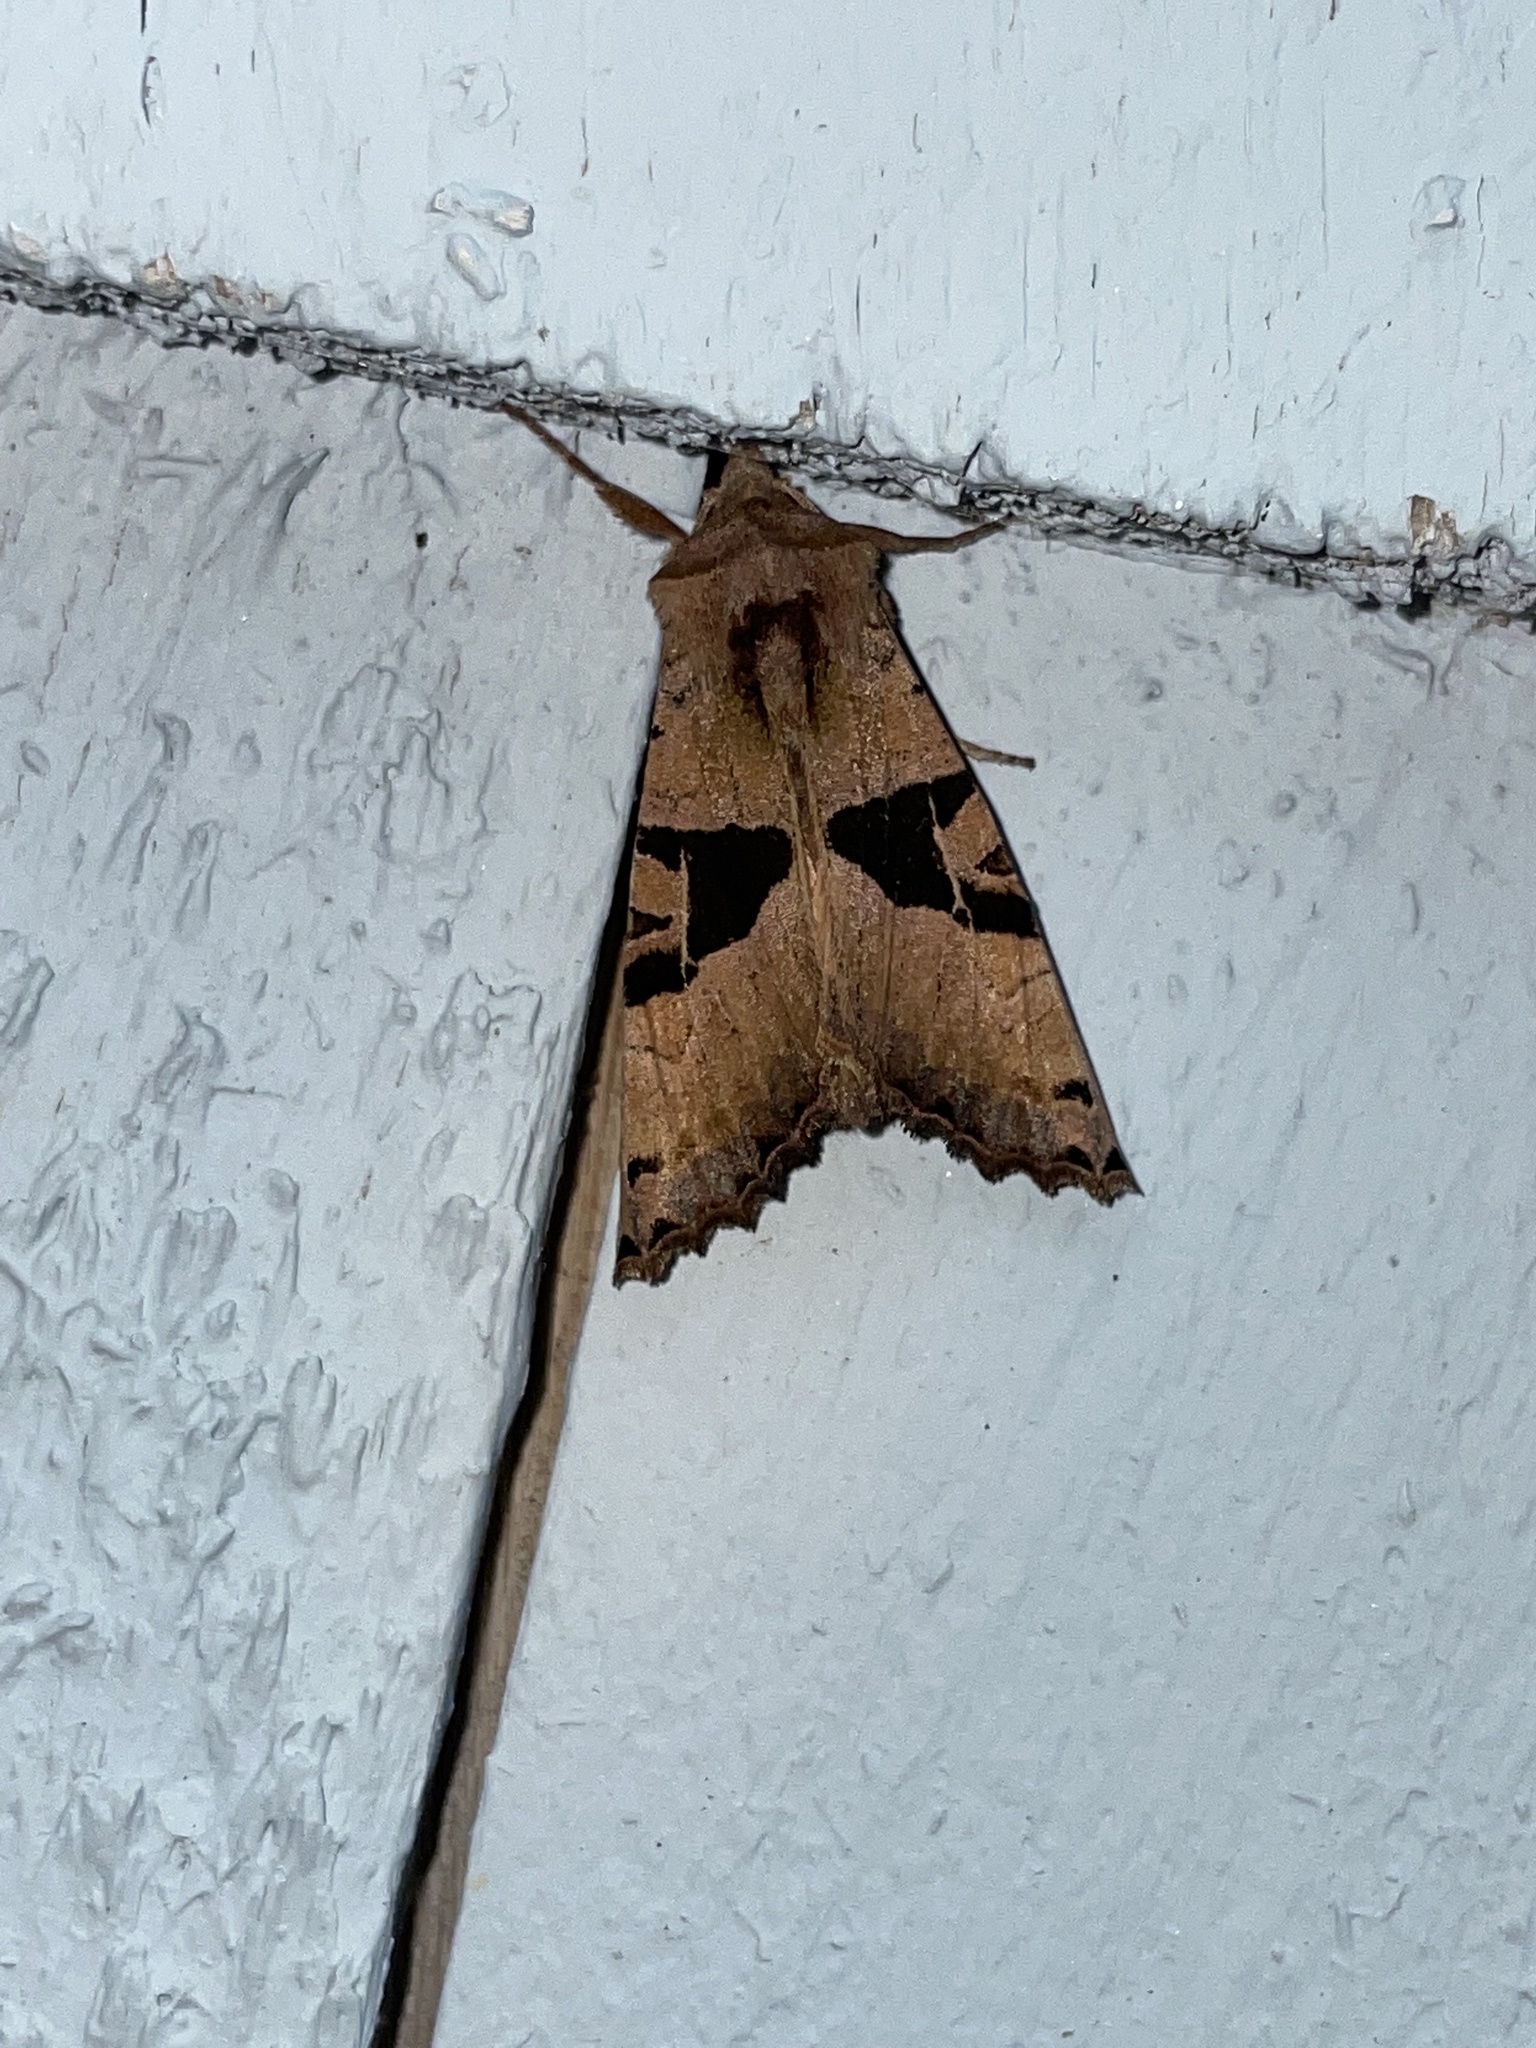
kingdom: Animalia
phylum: Arthropoda
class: Insecta
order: Lepidoptera
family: Noctuidae
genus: Phlogophora
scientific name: Phlogophora periculosa
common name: Brown angle shades
